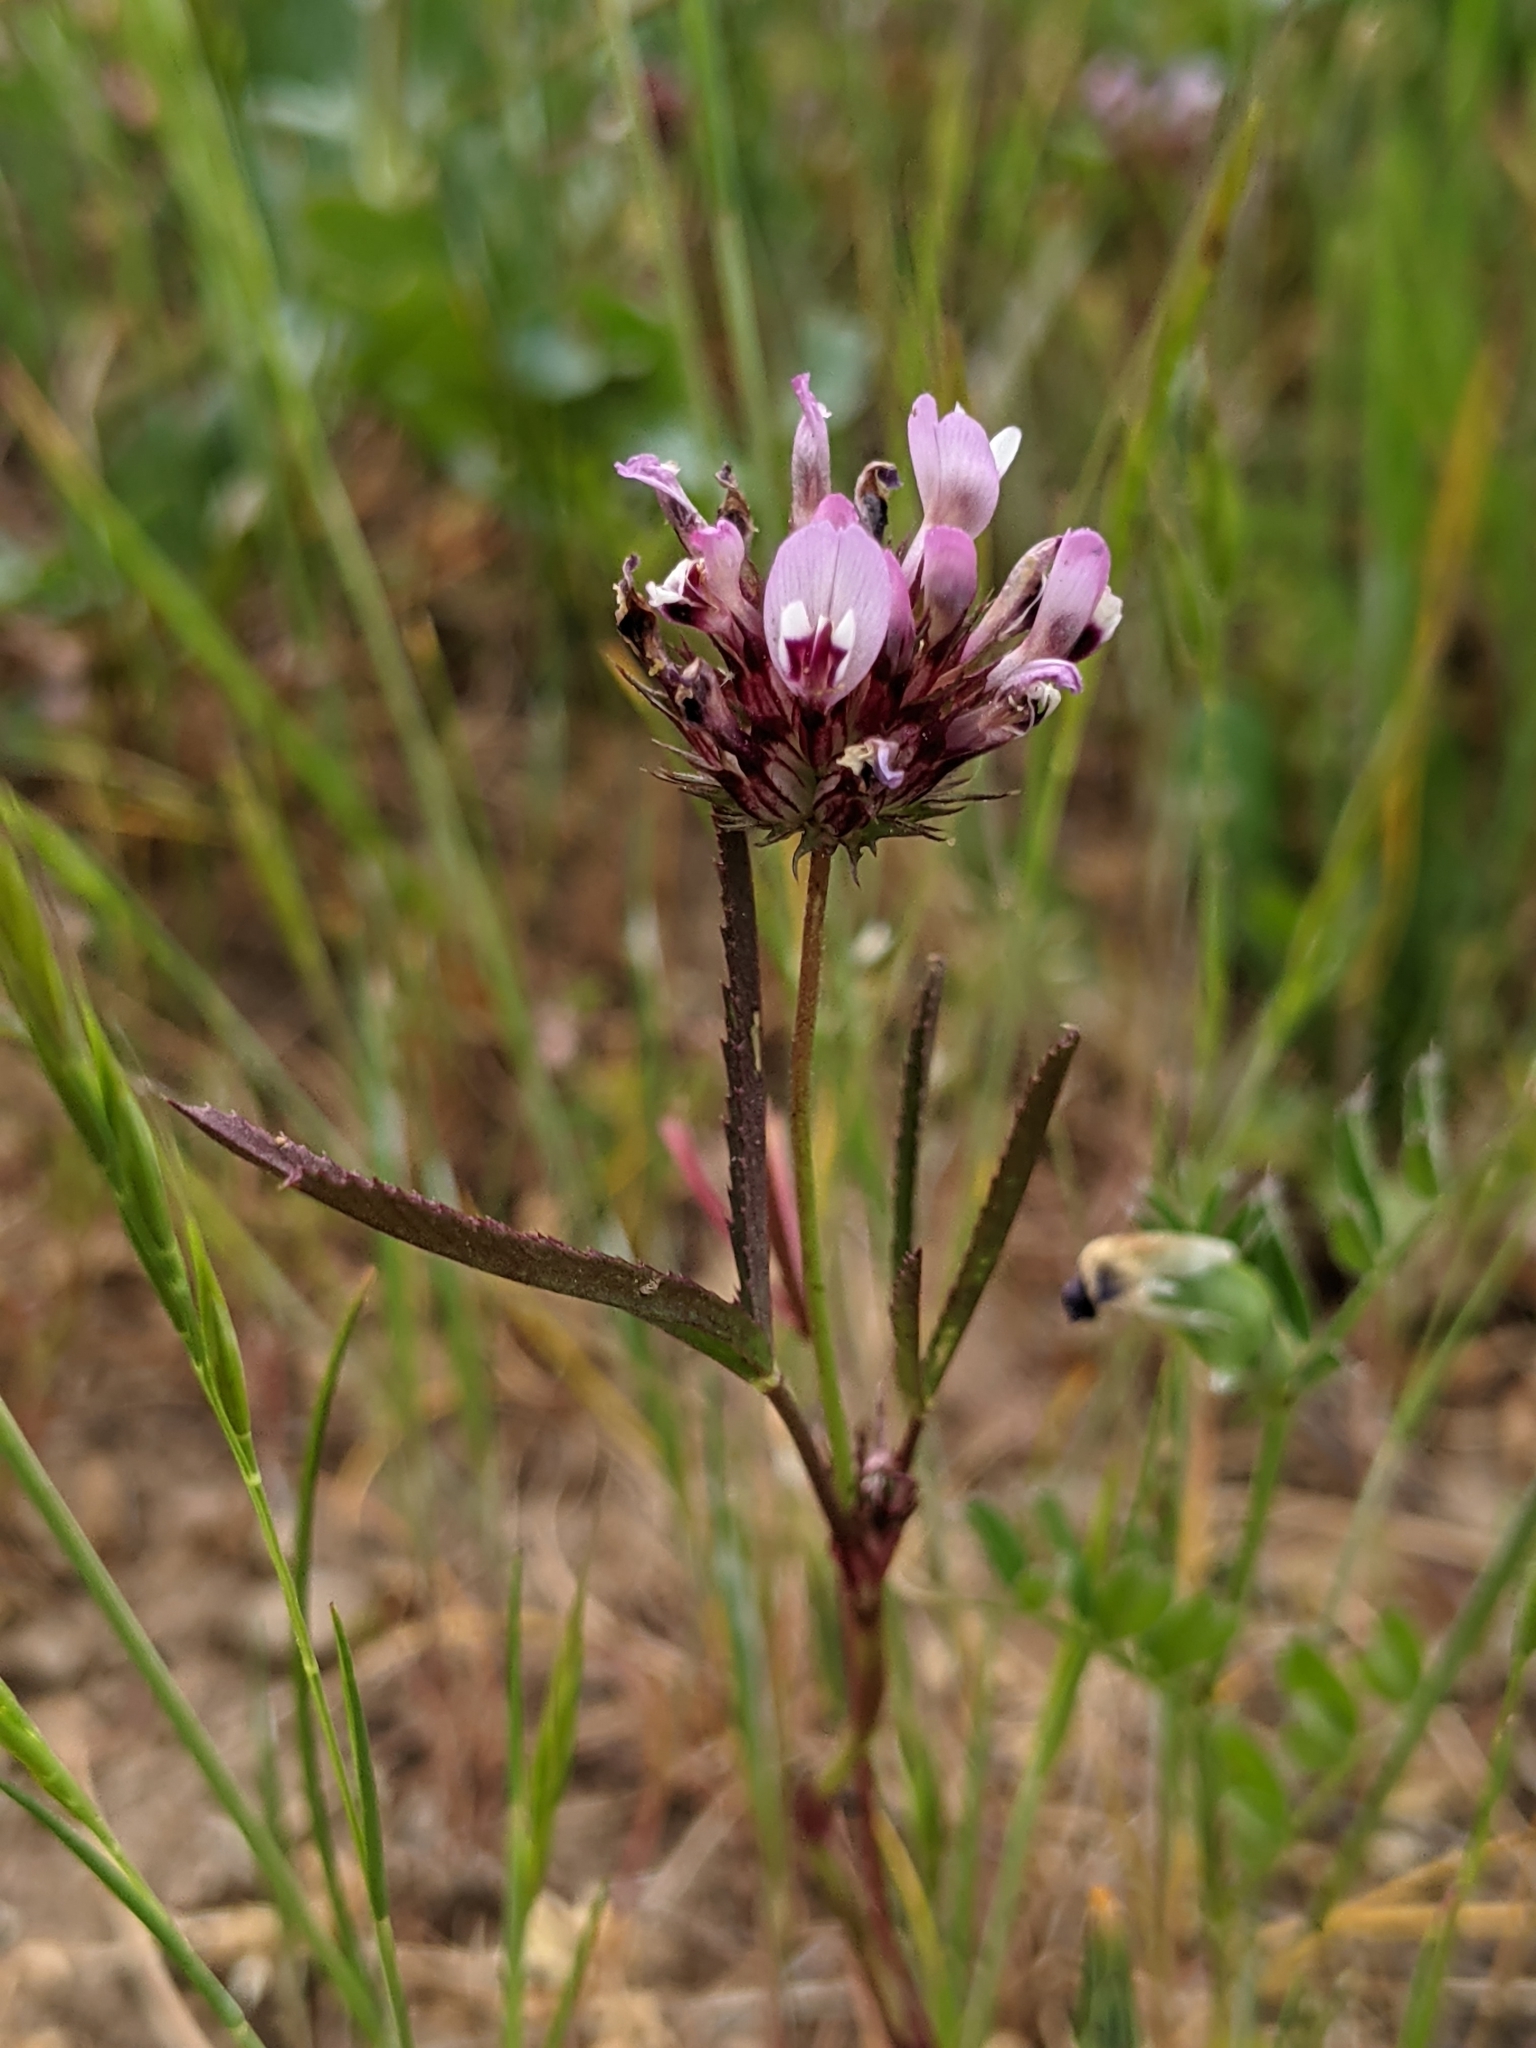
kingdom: Plantae
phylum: Tracheophyta
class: Magnoliopsida
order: Fabales
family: Fabaceae
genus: Trifolium
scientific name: Trifolium willdenovii
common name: Tomcat clover
